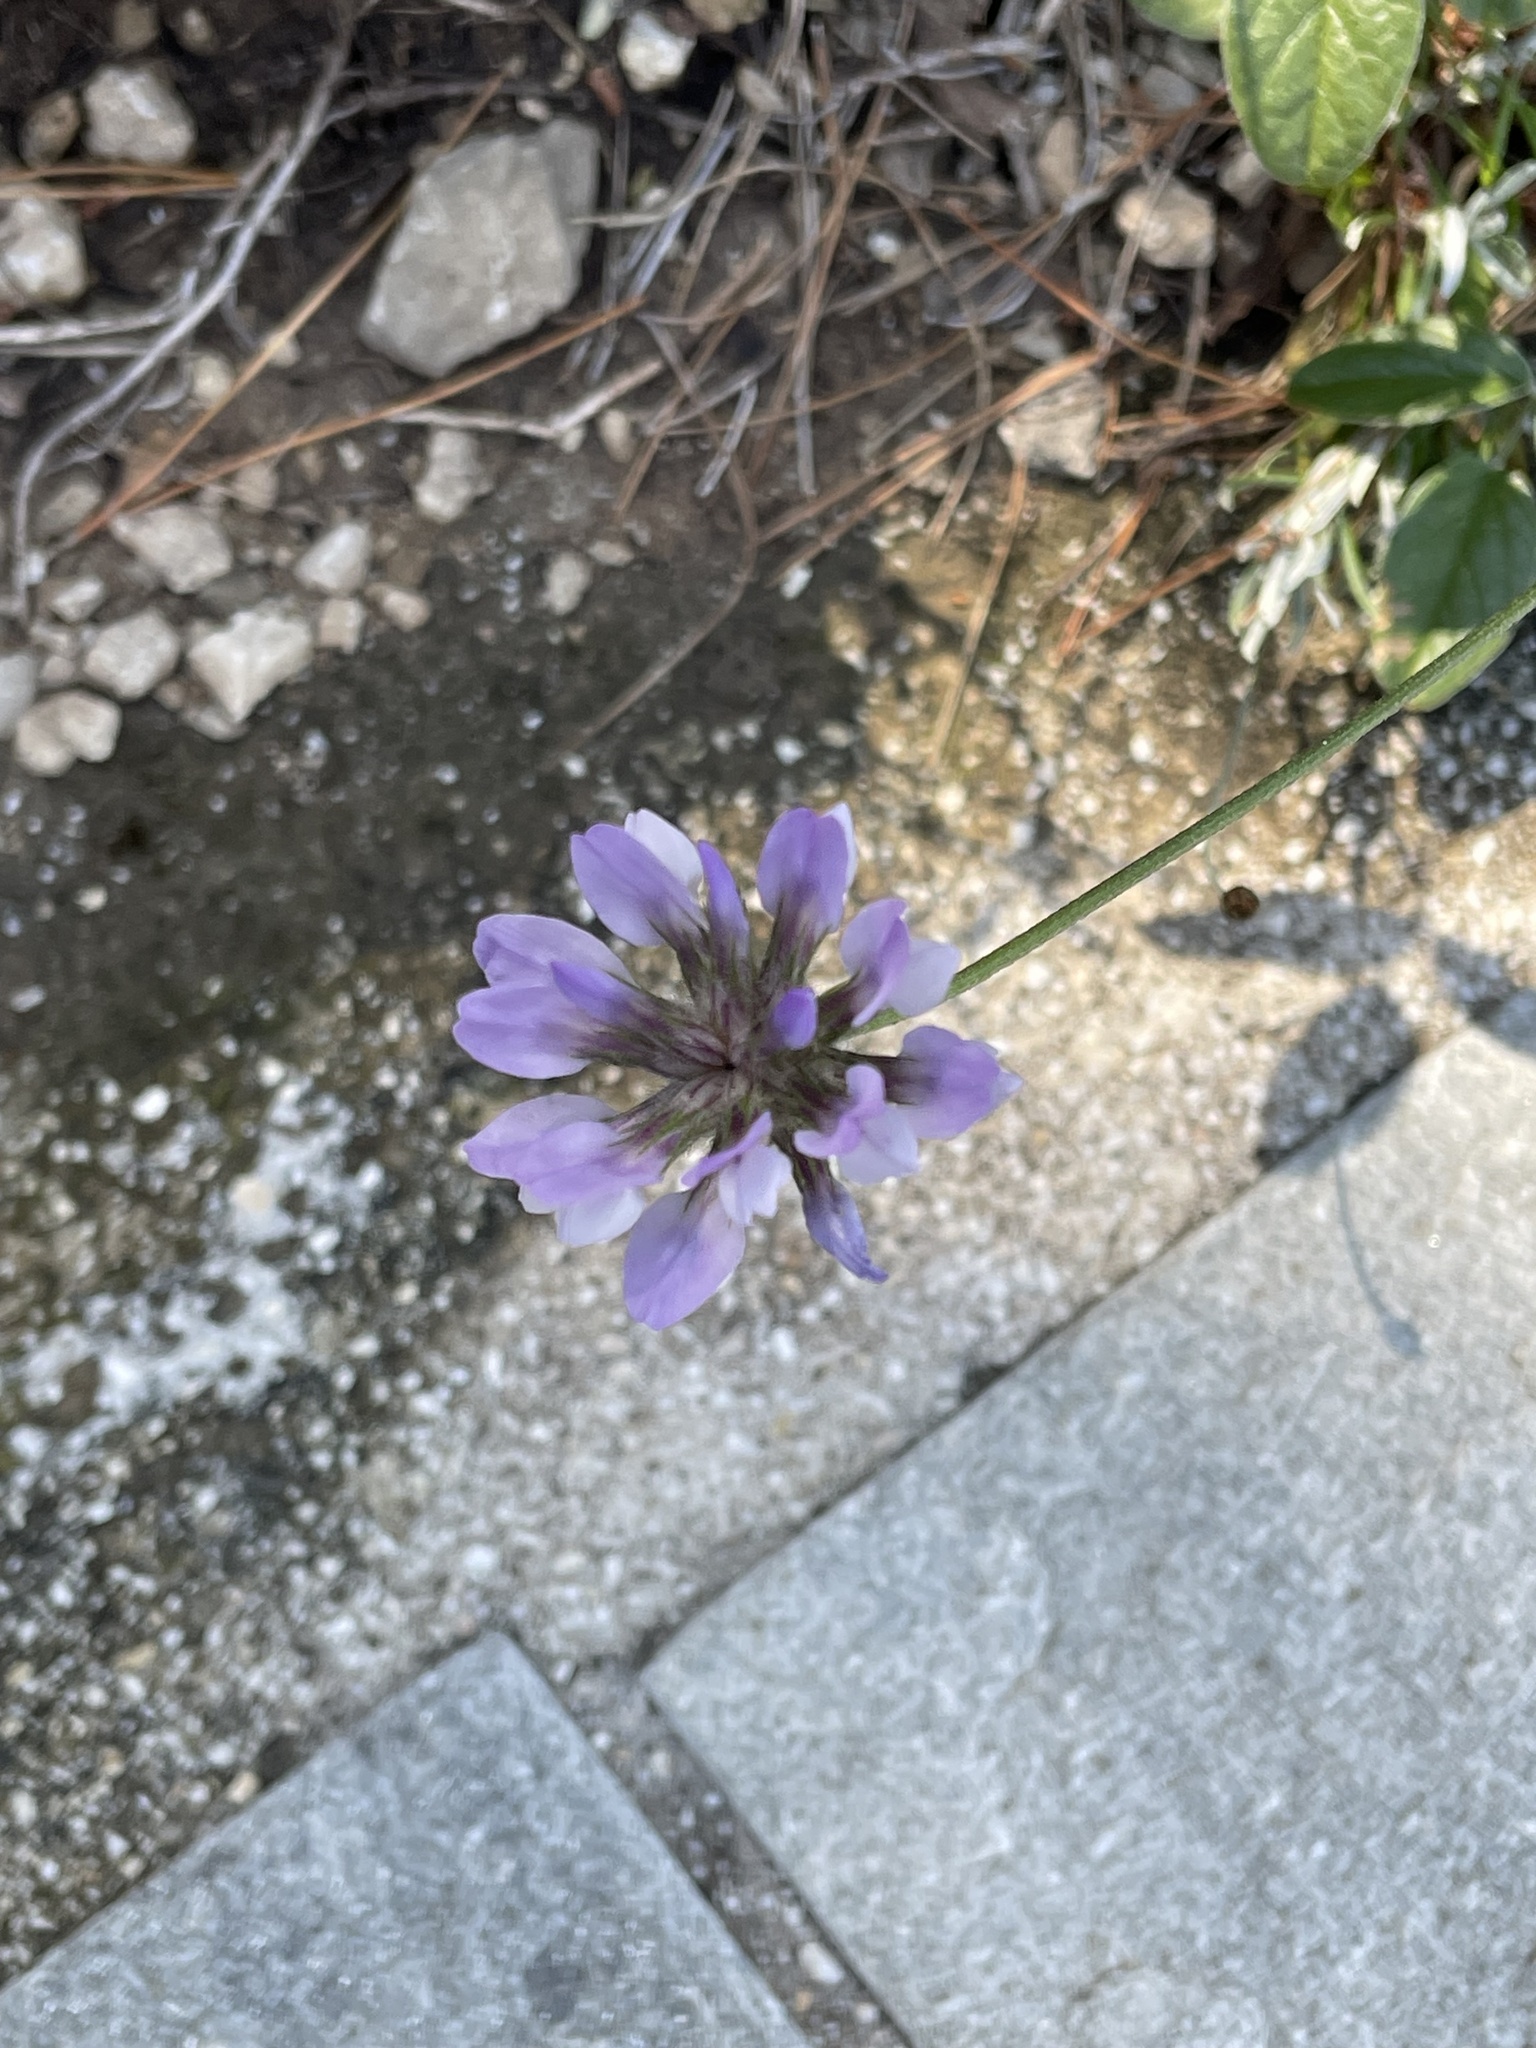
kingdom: Plantae
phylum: Tracheophyta
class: Magnoliopsida
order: Fabales
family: Fabaceae
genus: Bituminaria
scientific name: Bituminaria bituminosa
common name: Arabian pea
